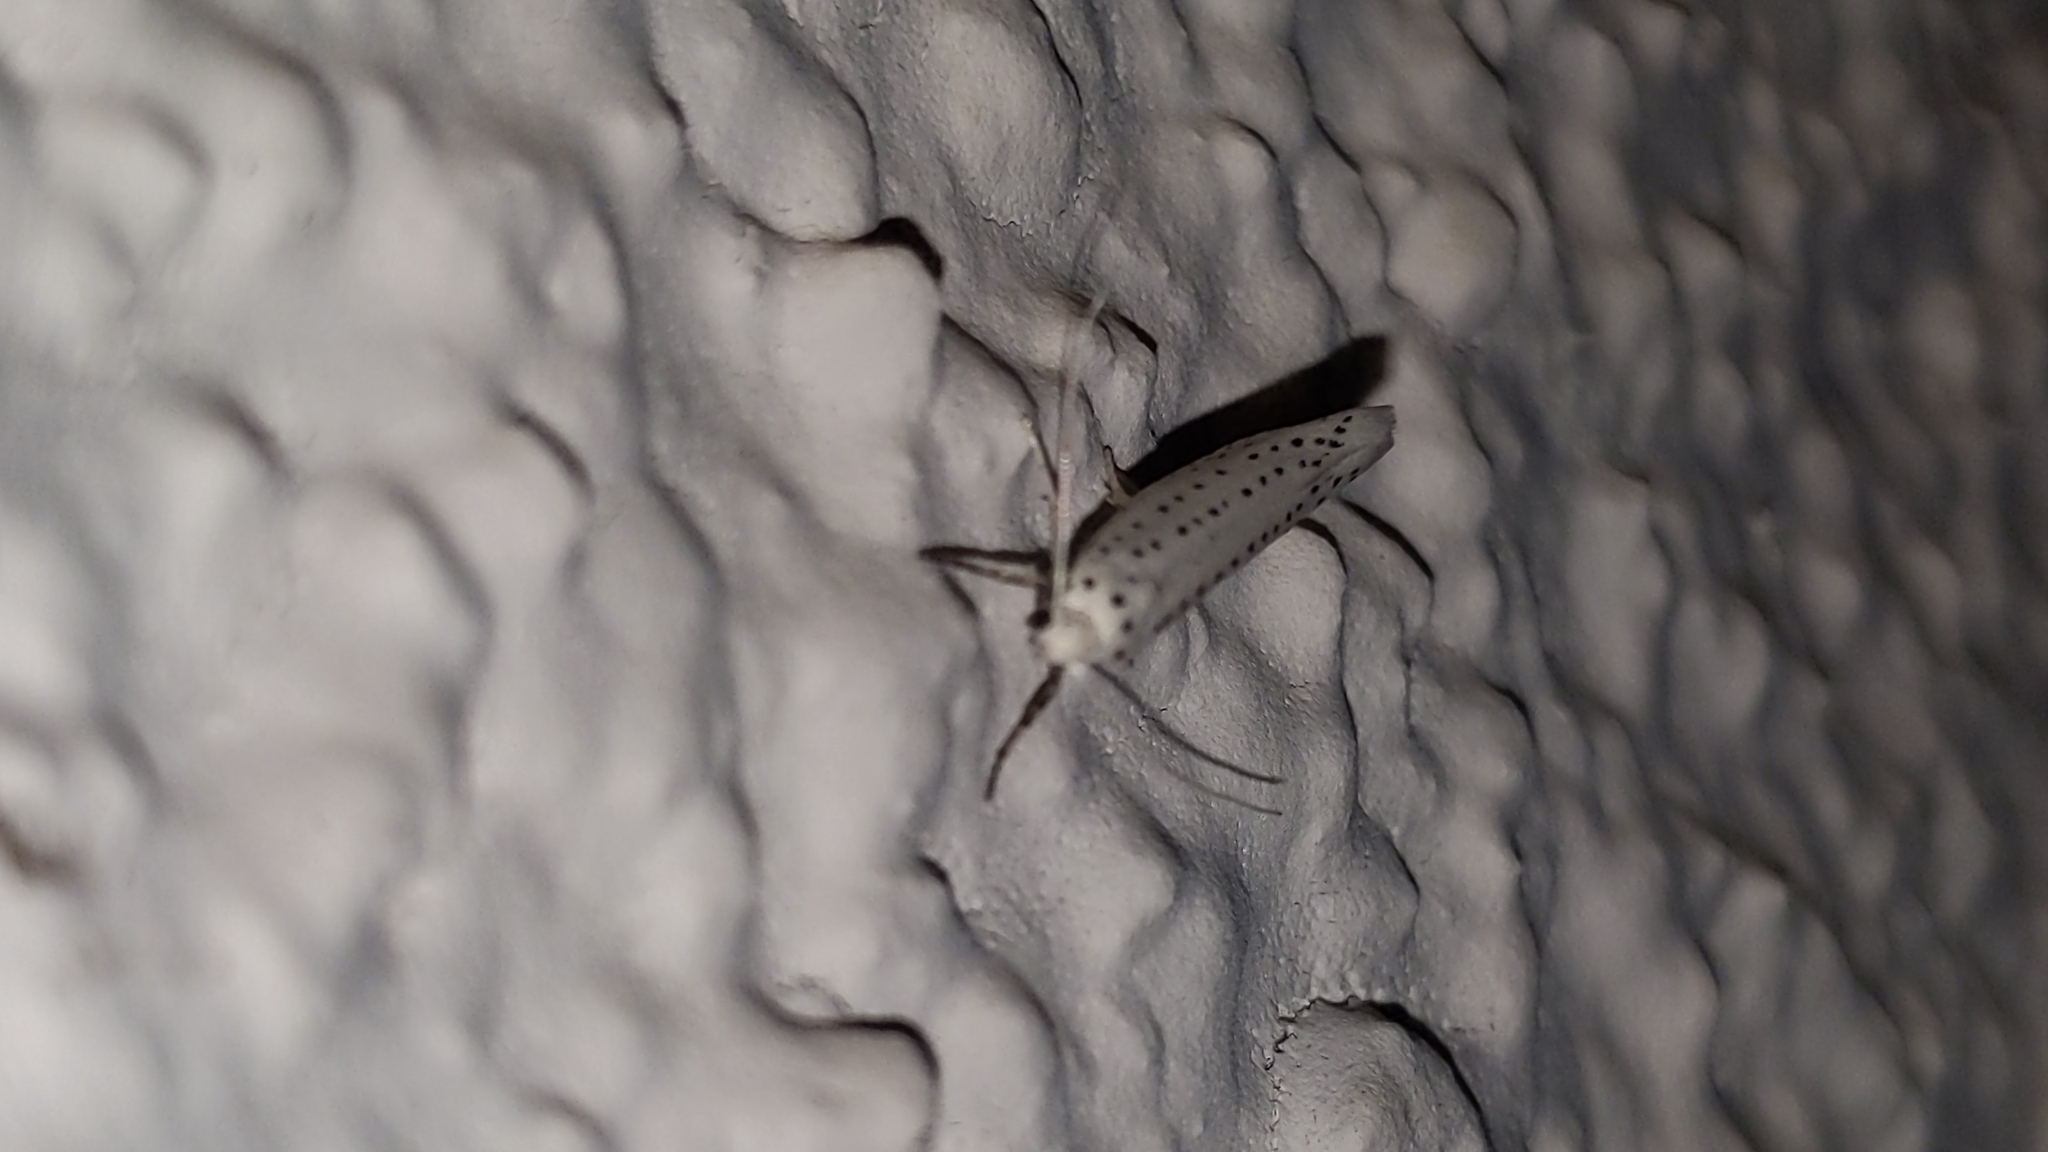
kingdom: Animalia
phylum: Arthropoda
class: Insecta
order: Lepidoptera
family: Yponomeutidae
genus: Yponomeuta
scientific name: Yponomeuta evonymella
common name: Bird-cherry ermine
